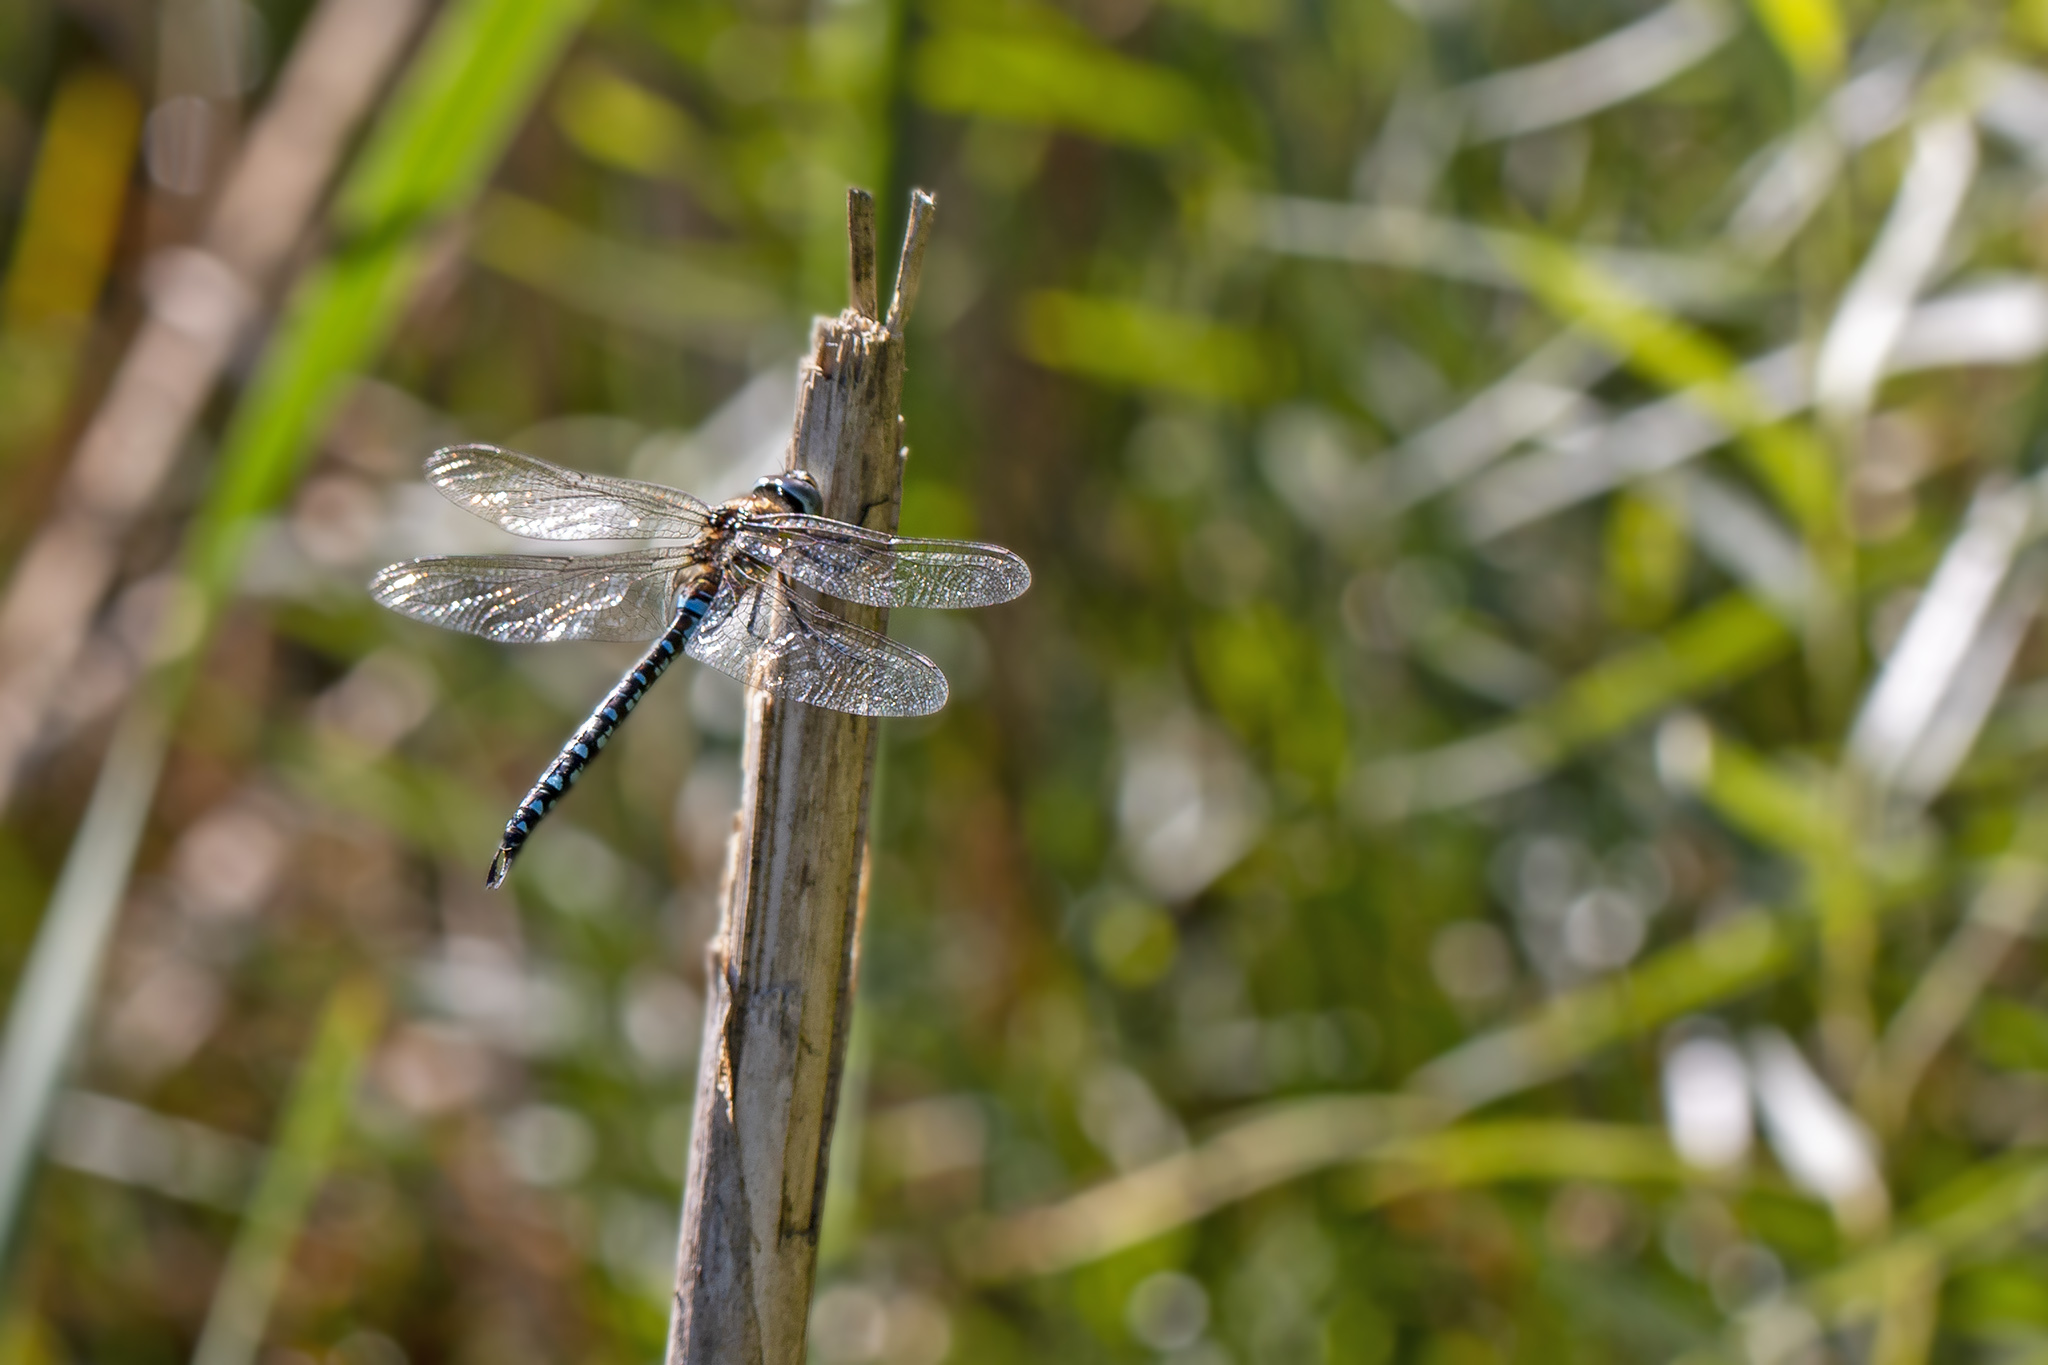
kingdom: Animalia
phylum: Arthropoda
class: Insecta
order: Odonata
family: Aeshnidae
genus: Aeshna
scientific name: Aeshna mixta
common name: Migrant hawker
